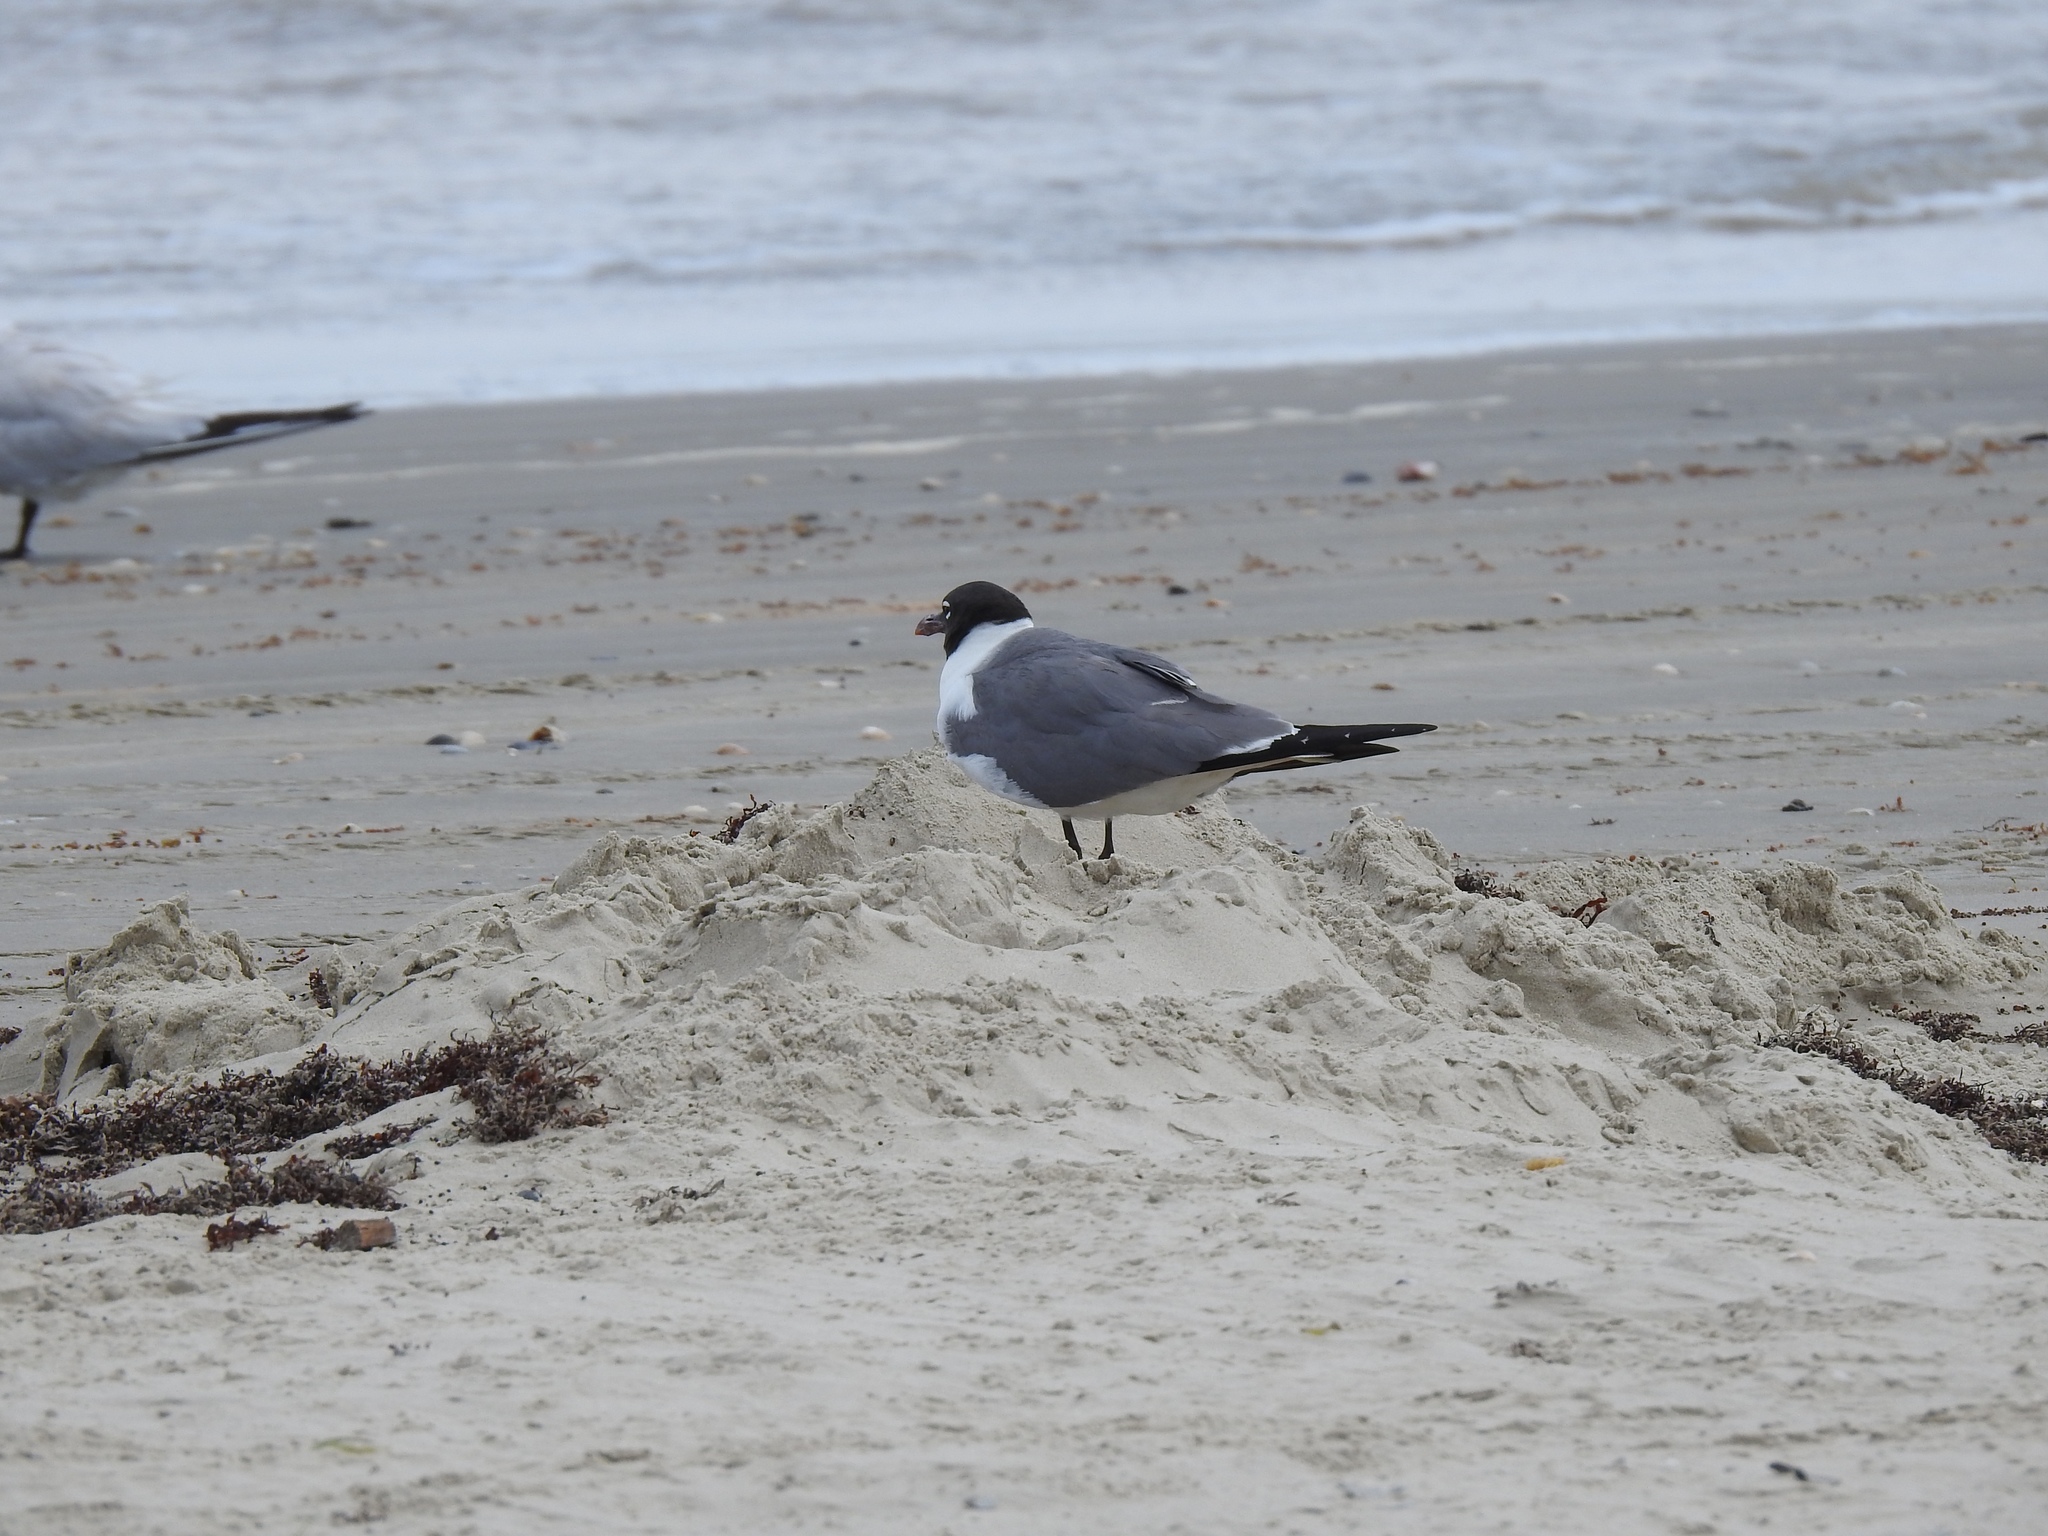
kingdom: Animalia
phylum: Chordata
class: Aves
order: Charadriiformes
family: Laridae
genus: Leucophaeus
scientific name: Leucophaeus atricilla
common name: Laughing gull
